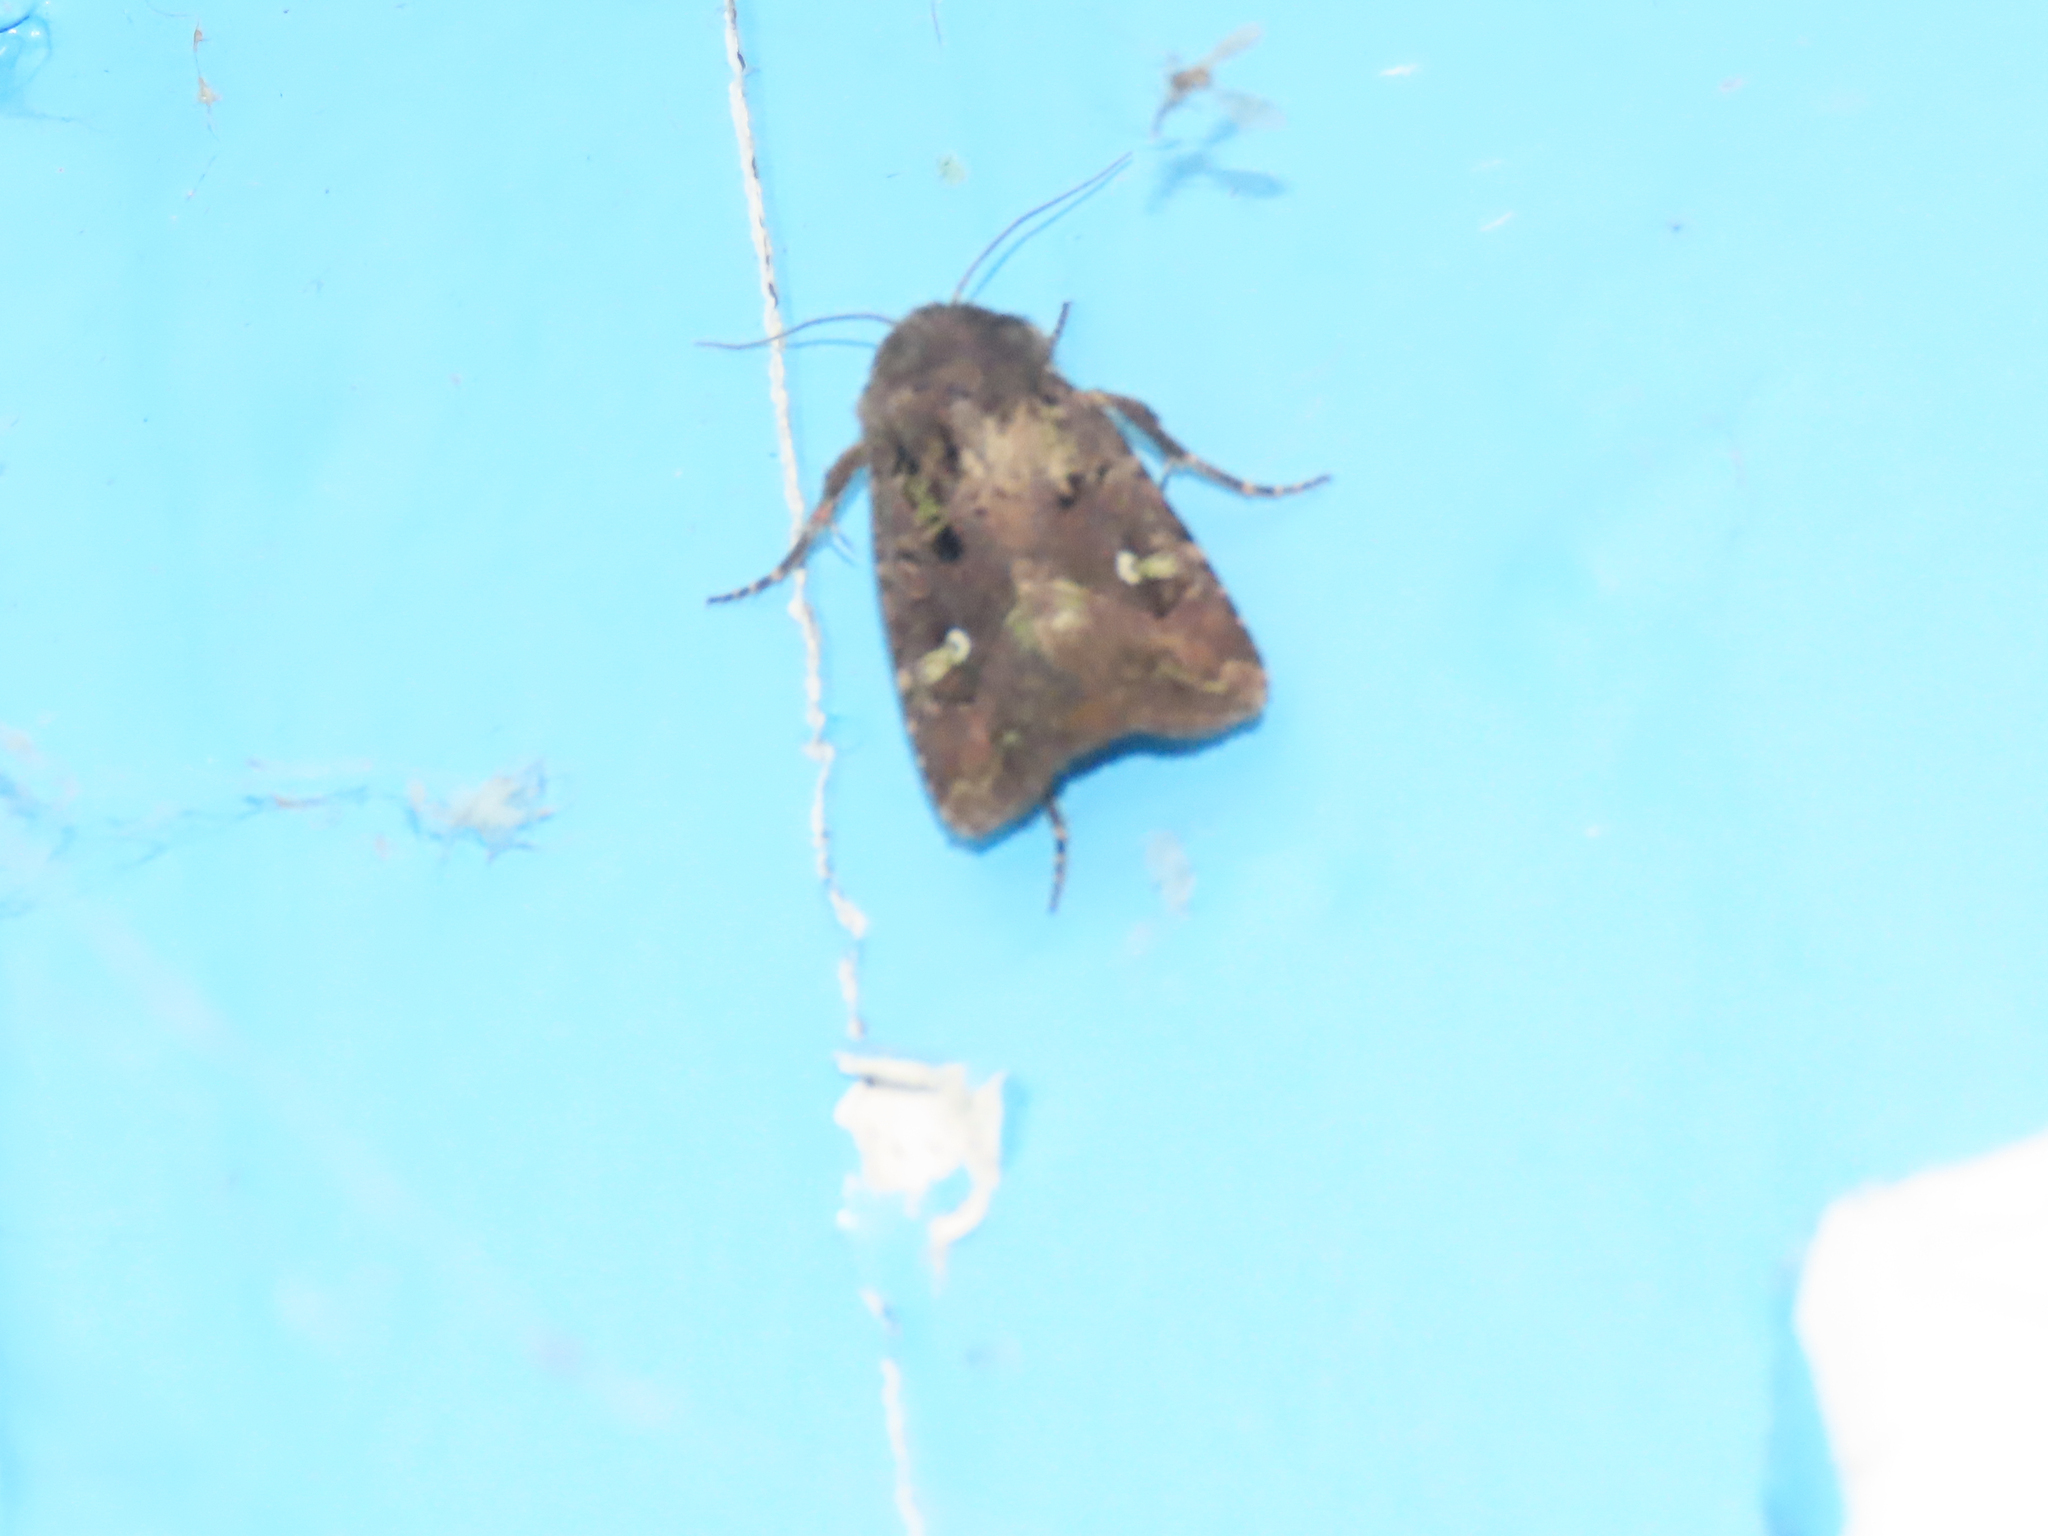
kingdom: Animalia
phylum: Arthropoda
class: Insecta
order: Lepidoptera
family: Noctuidae
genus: Lacinipolia
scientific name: Lacinipolia renigera
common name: Kidney-spotted minor
